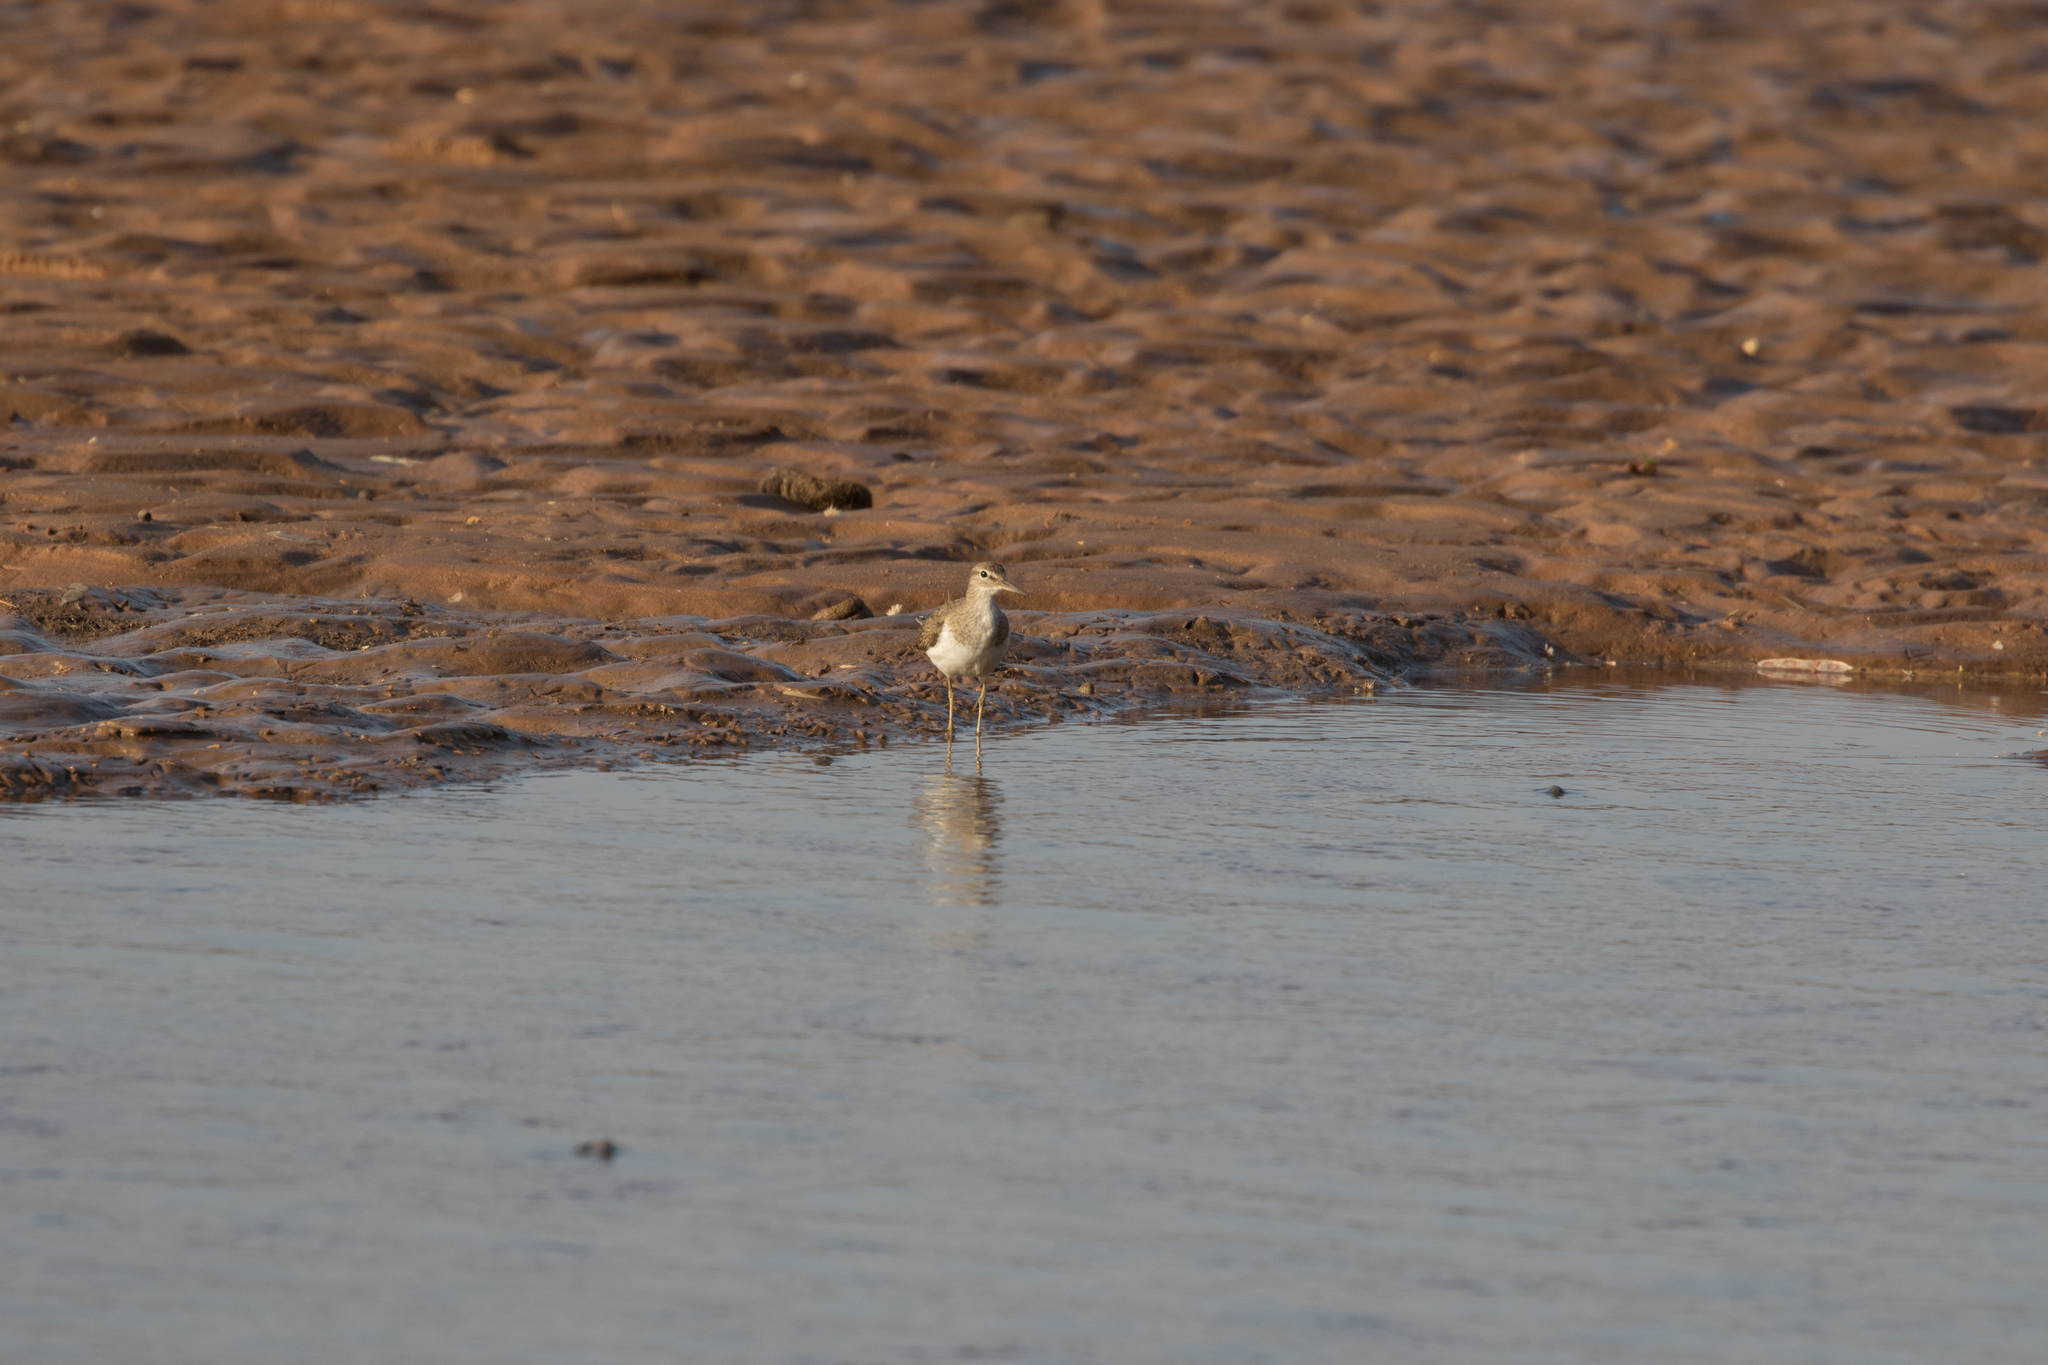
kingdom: Animalia
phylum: Chordata
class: Aves
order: Charadriiformes
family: Scolopacidae
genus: Actitis
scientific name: Actitis hypoleucos
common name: Common sandpiper
